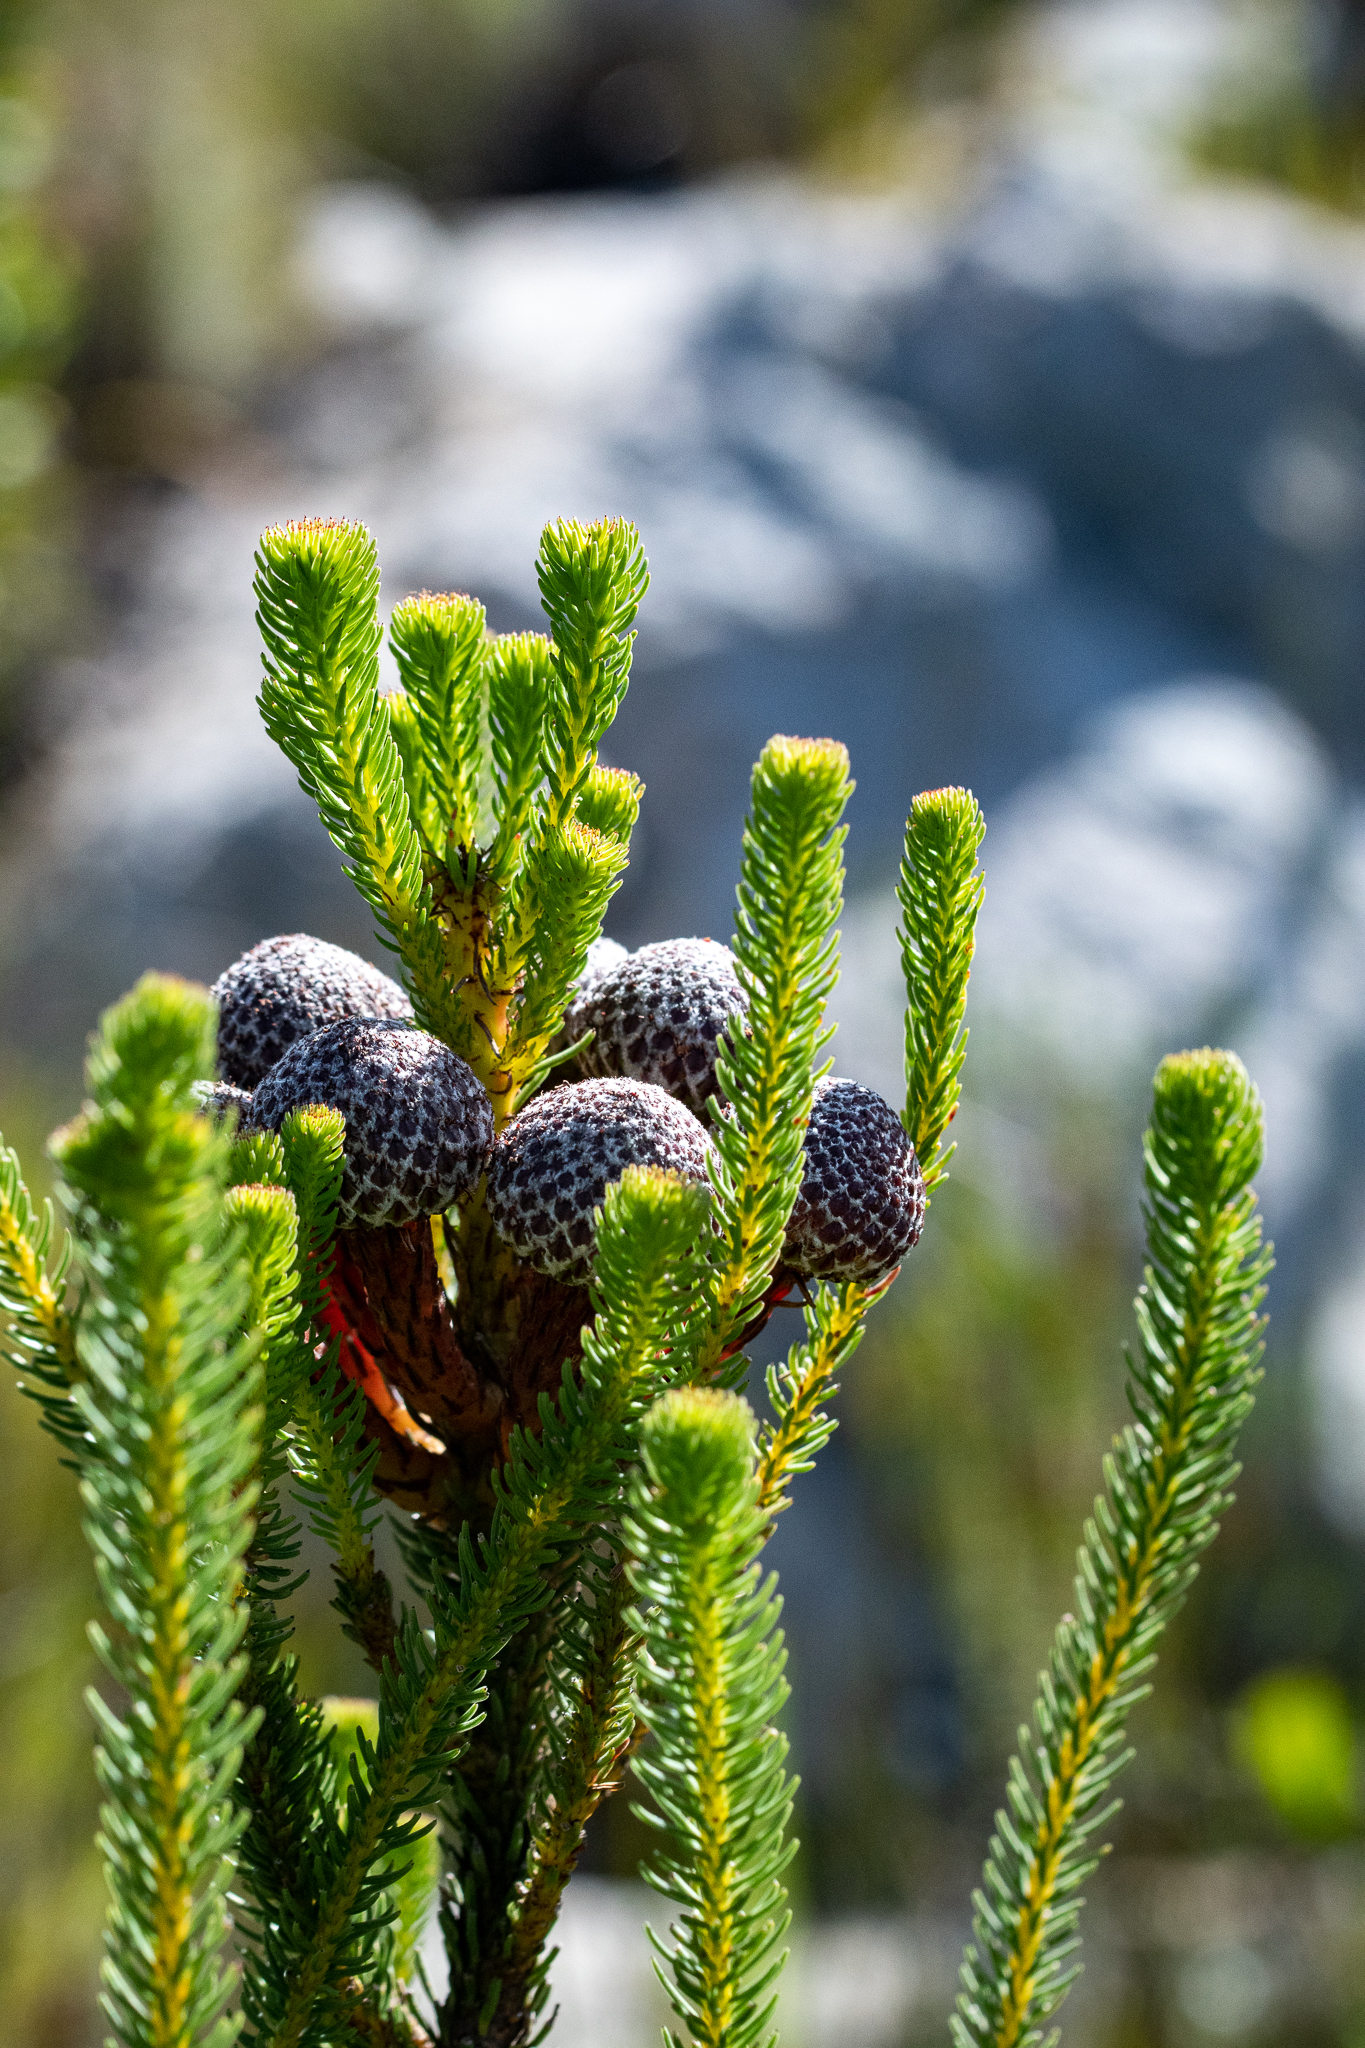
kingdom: Plantae
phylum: Tracheophyta
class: Magnoliopsida
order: Bruniales
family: Bruniaceae
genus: Berzelia
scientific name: Berzelia stokoei
